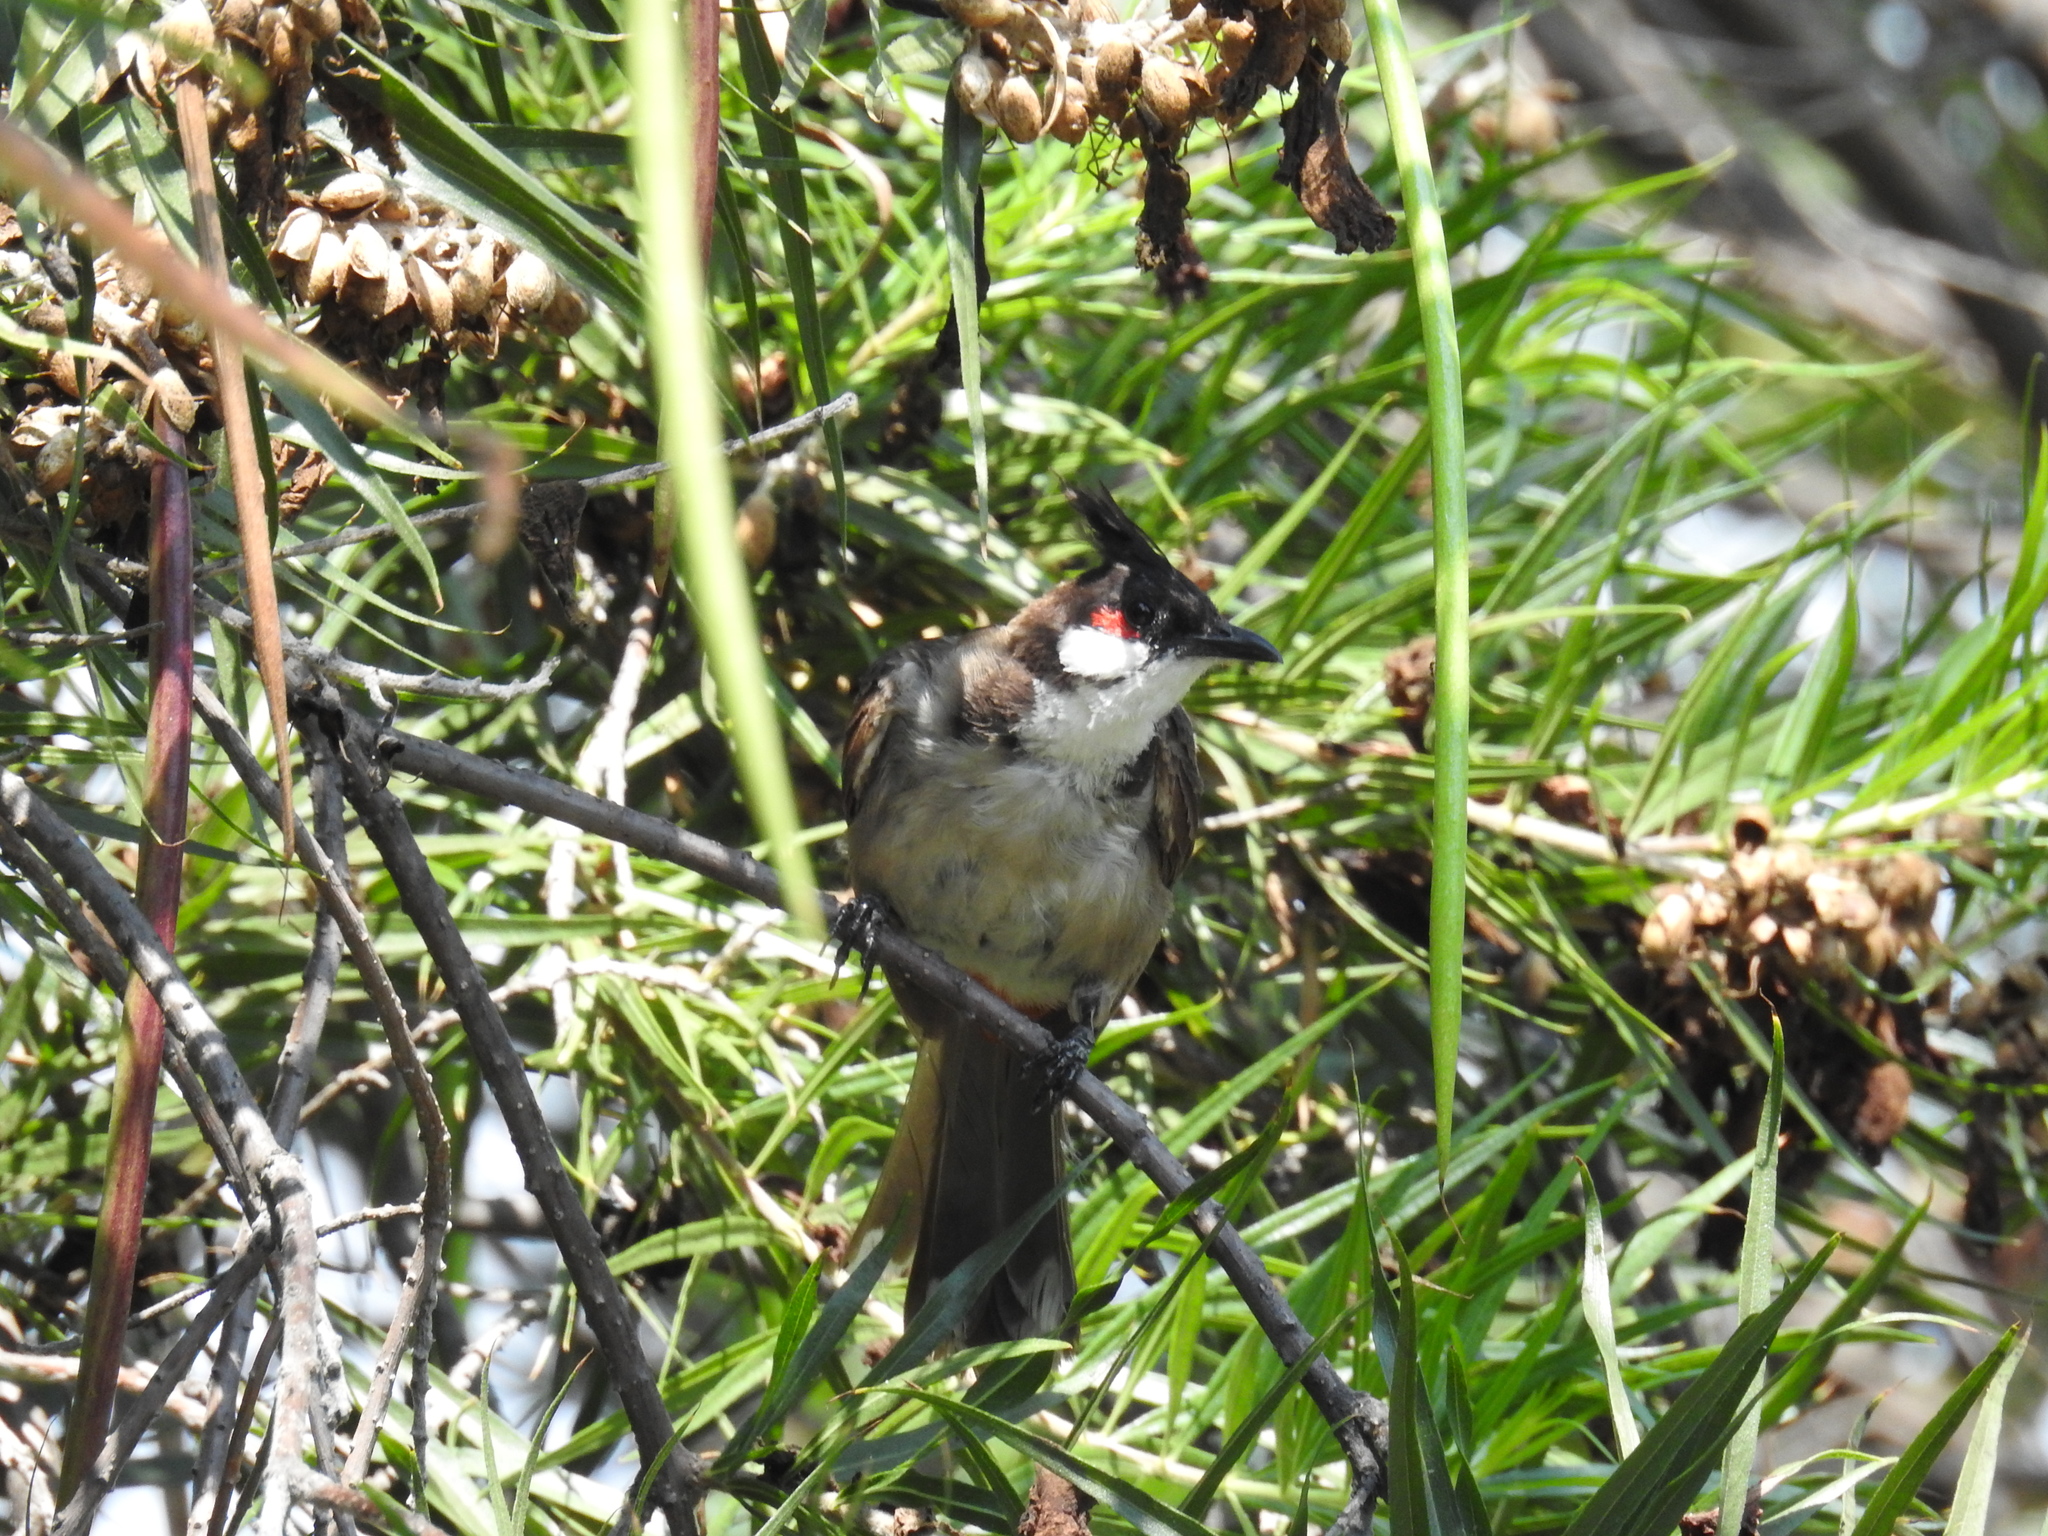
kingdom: Animalia
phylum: Chordata
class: Aves
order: Passeriformes
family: Pycnonotidae
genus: Pycnonotus
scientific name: Pycnonotus jocosus
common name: Red-whiskered bulbul
